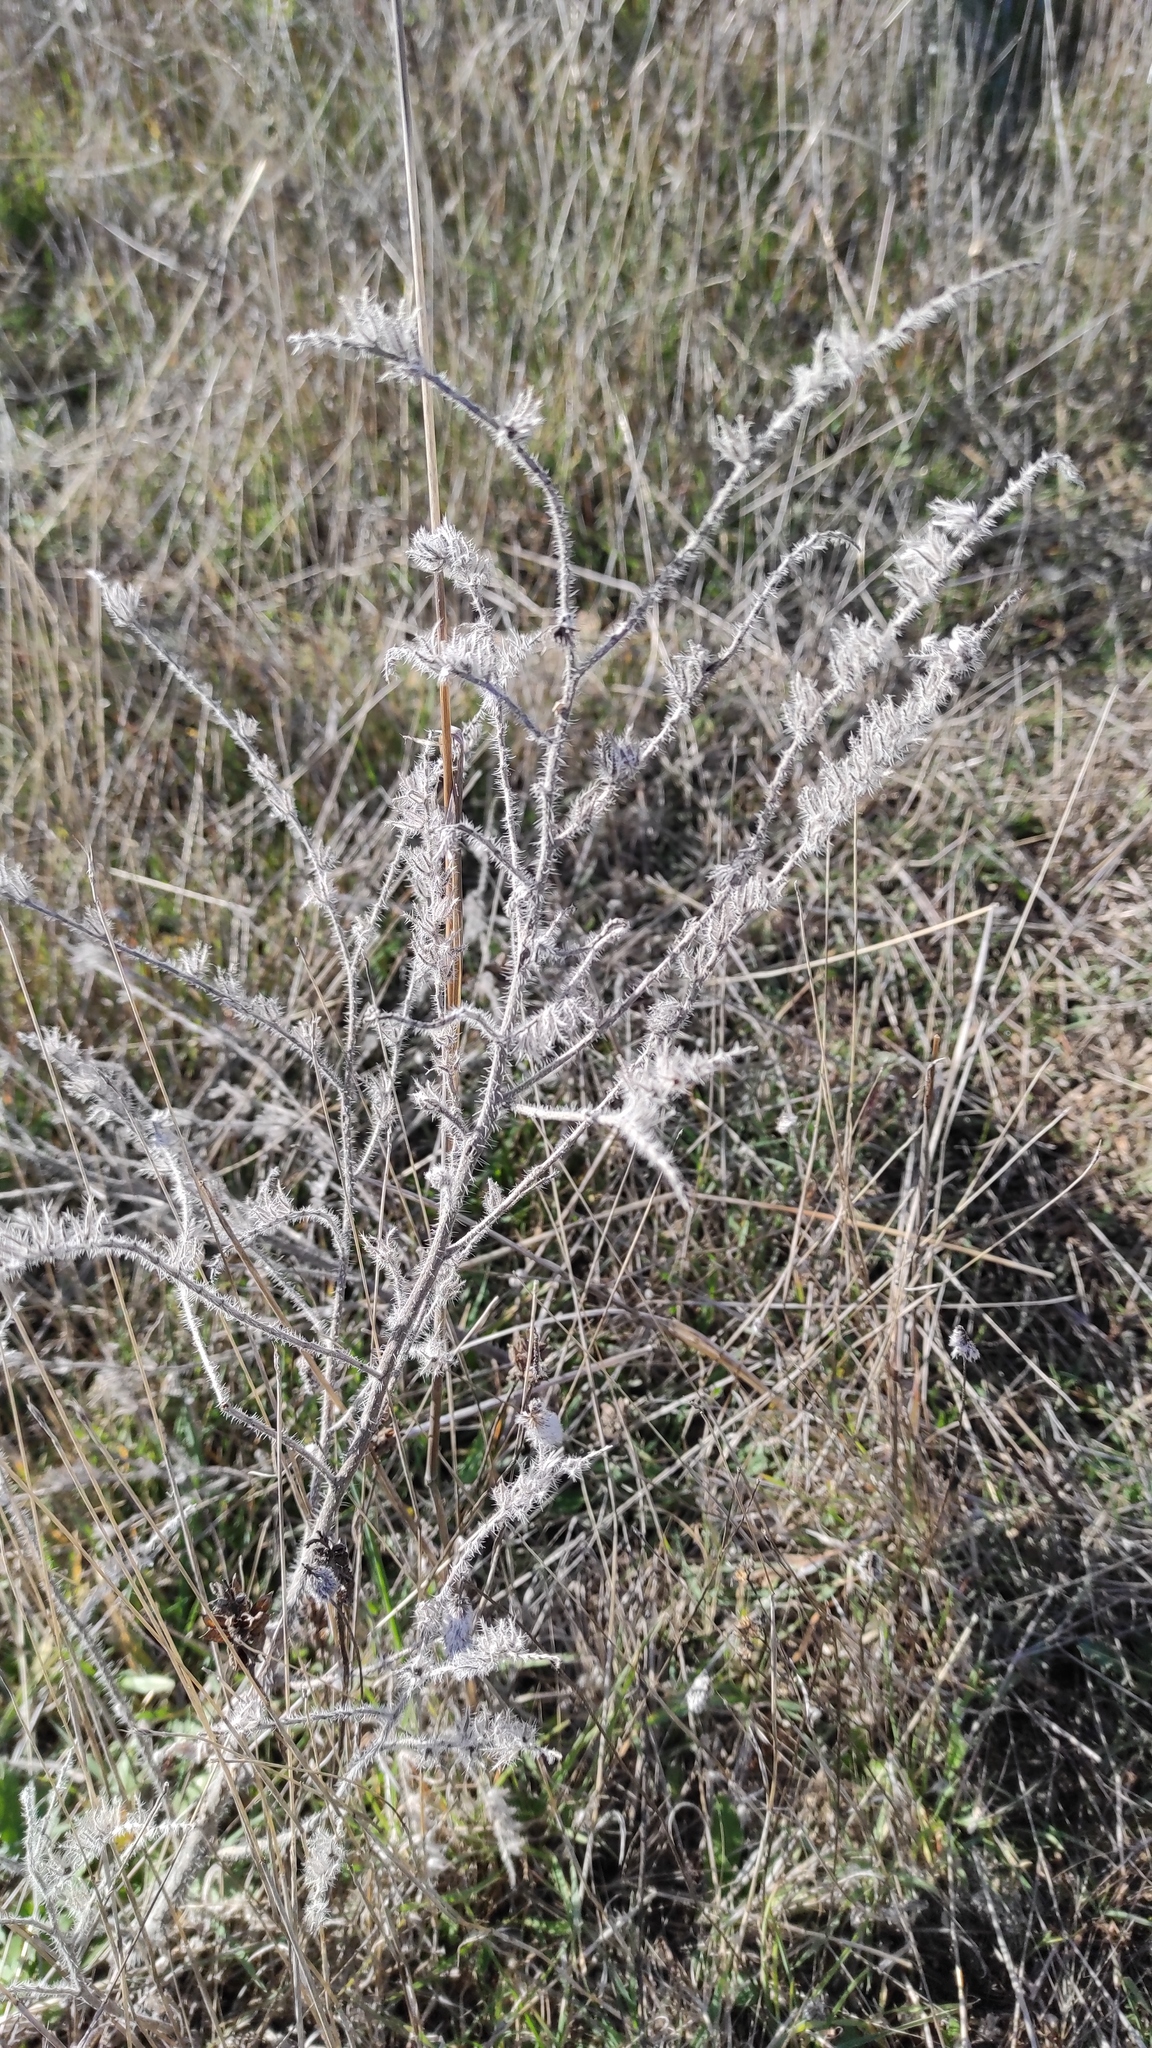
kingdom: Plantae
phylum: Tracheophyta
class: Magnoliopsida
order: Boraginales
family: Boraginaceae
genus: Echium
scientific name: Echium vulgare
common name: Common viper's bugloss
